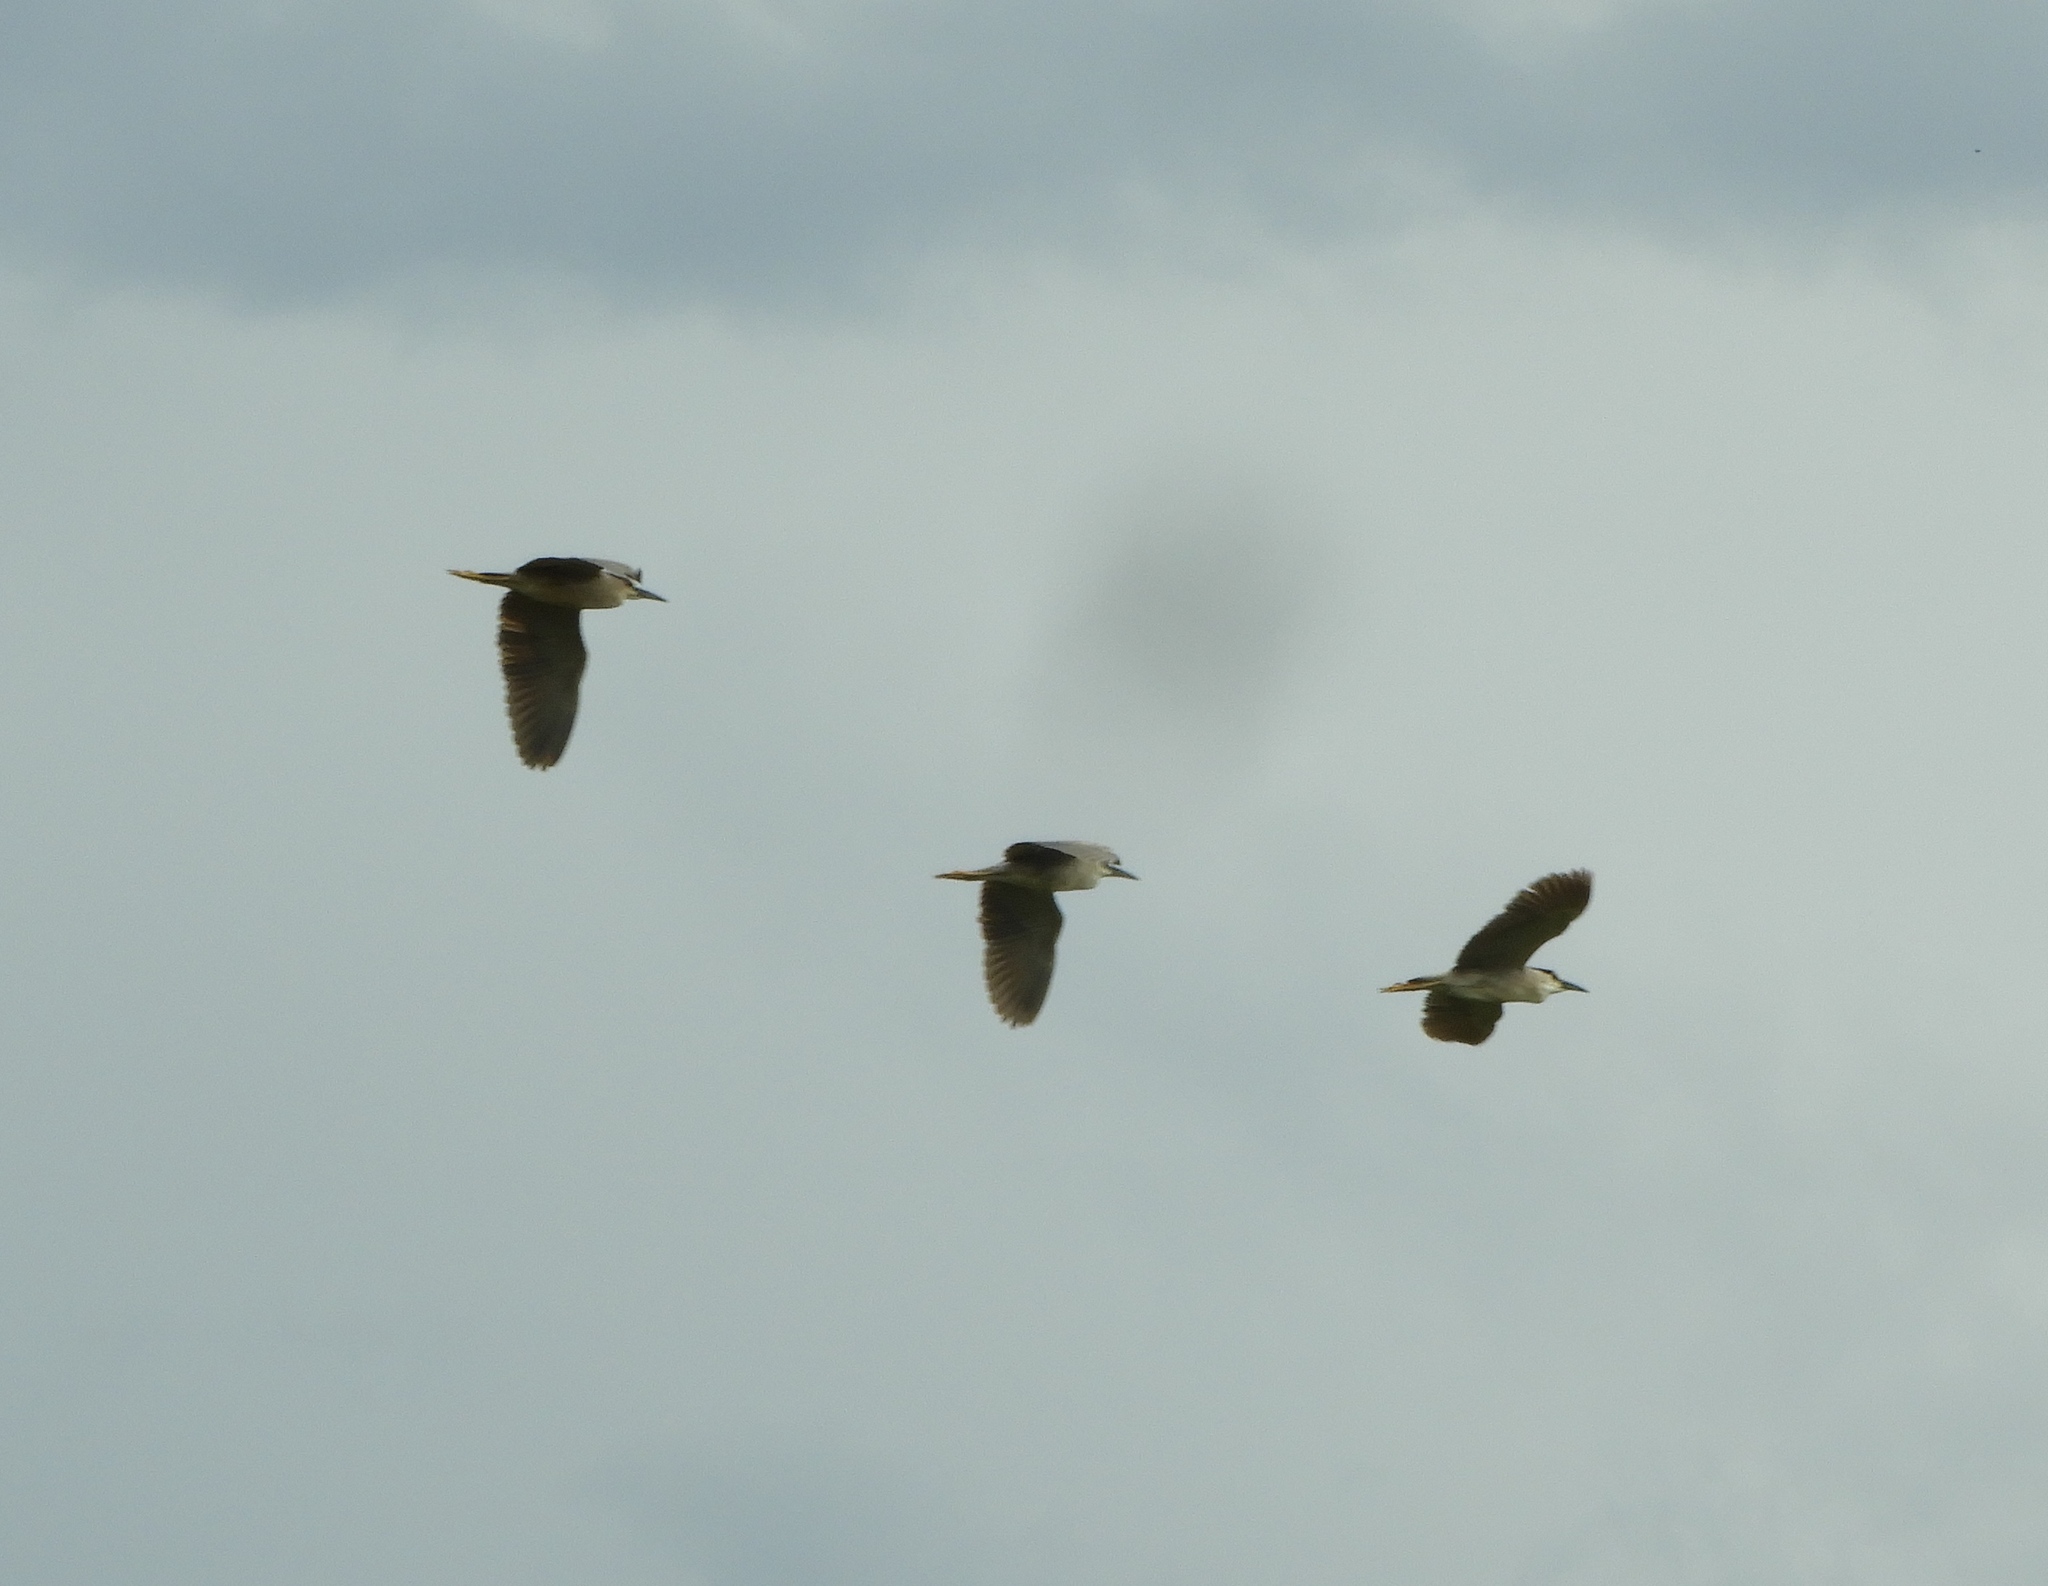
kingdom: Animalia
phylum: Chordata
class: Aves
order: Pelecaniformes
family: Ardeidae
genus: Nycticorax
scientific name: Nycticorax nycticorax
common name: Black-crowned night heron
